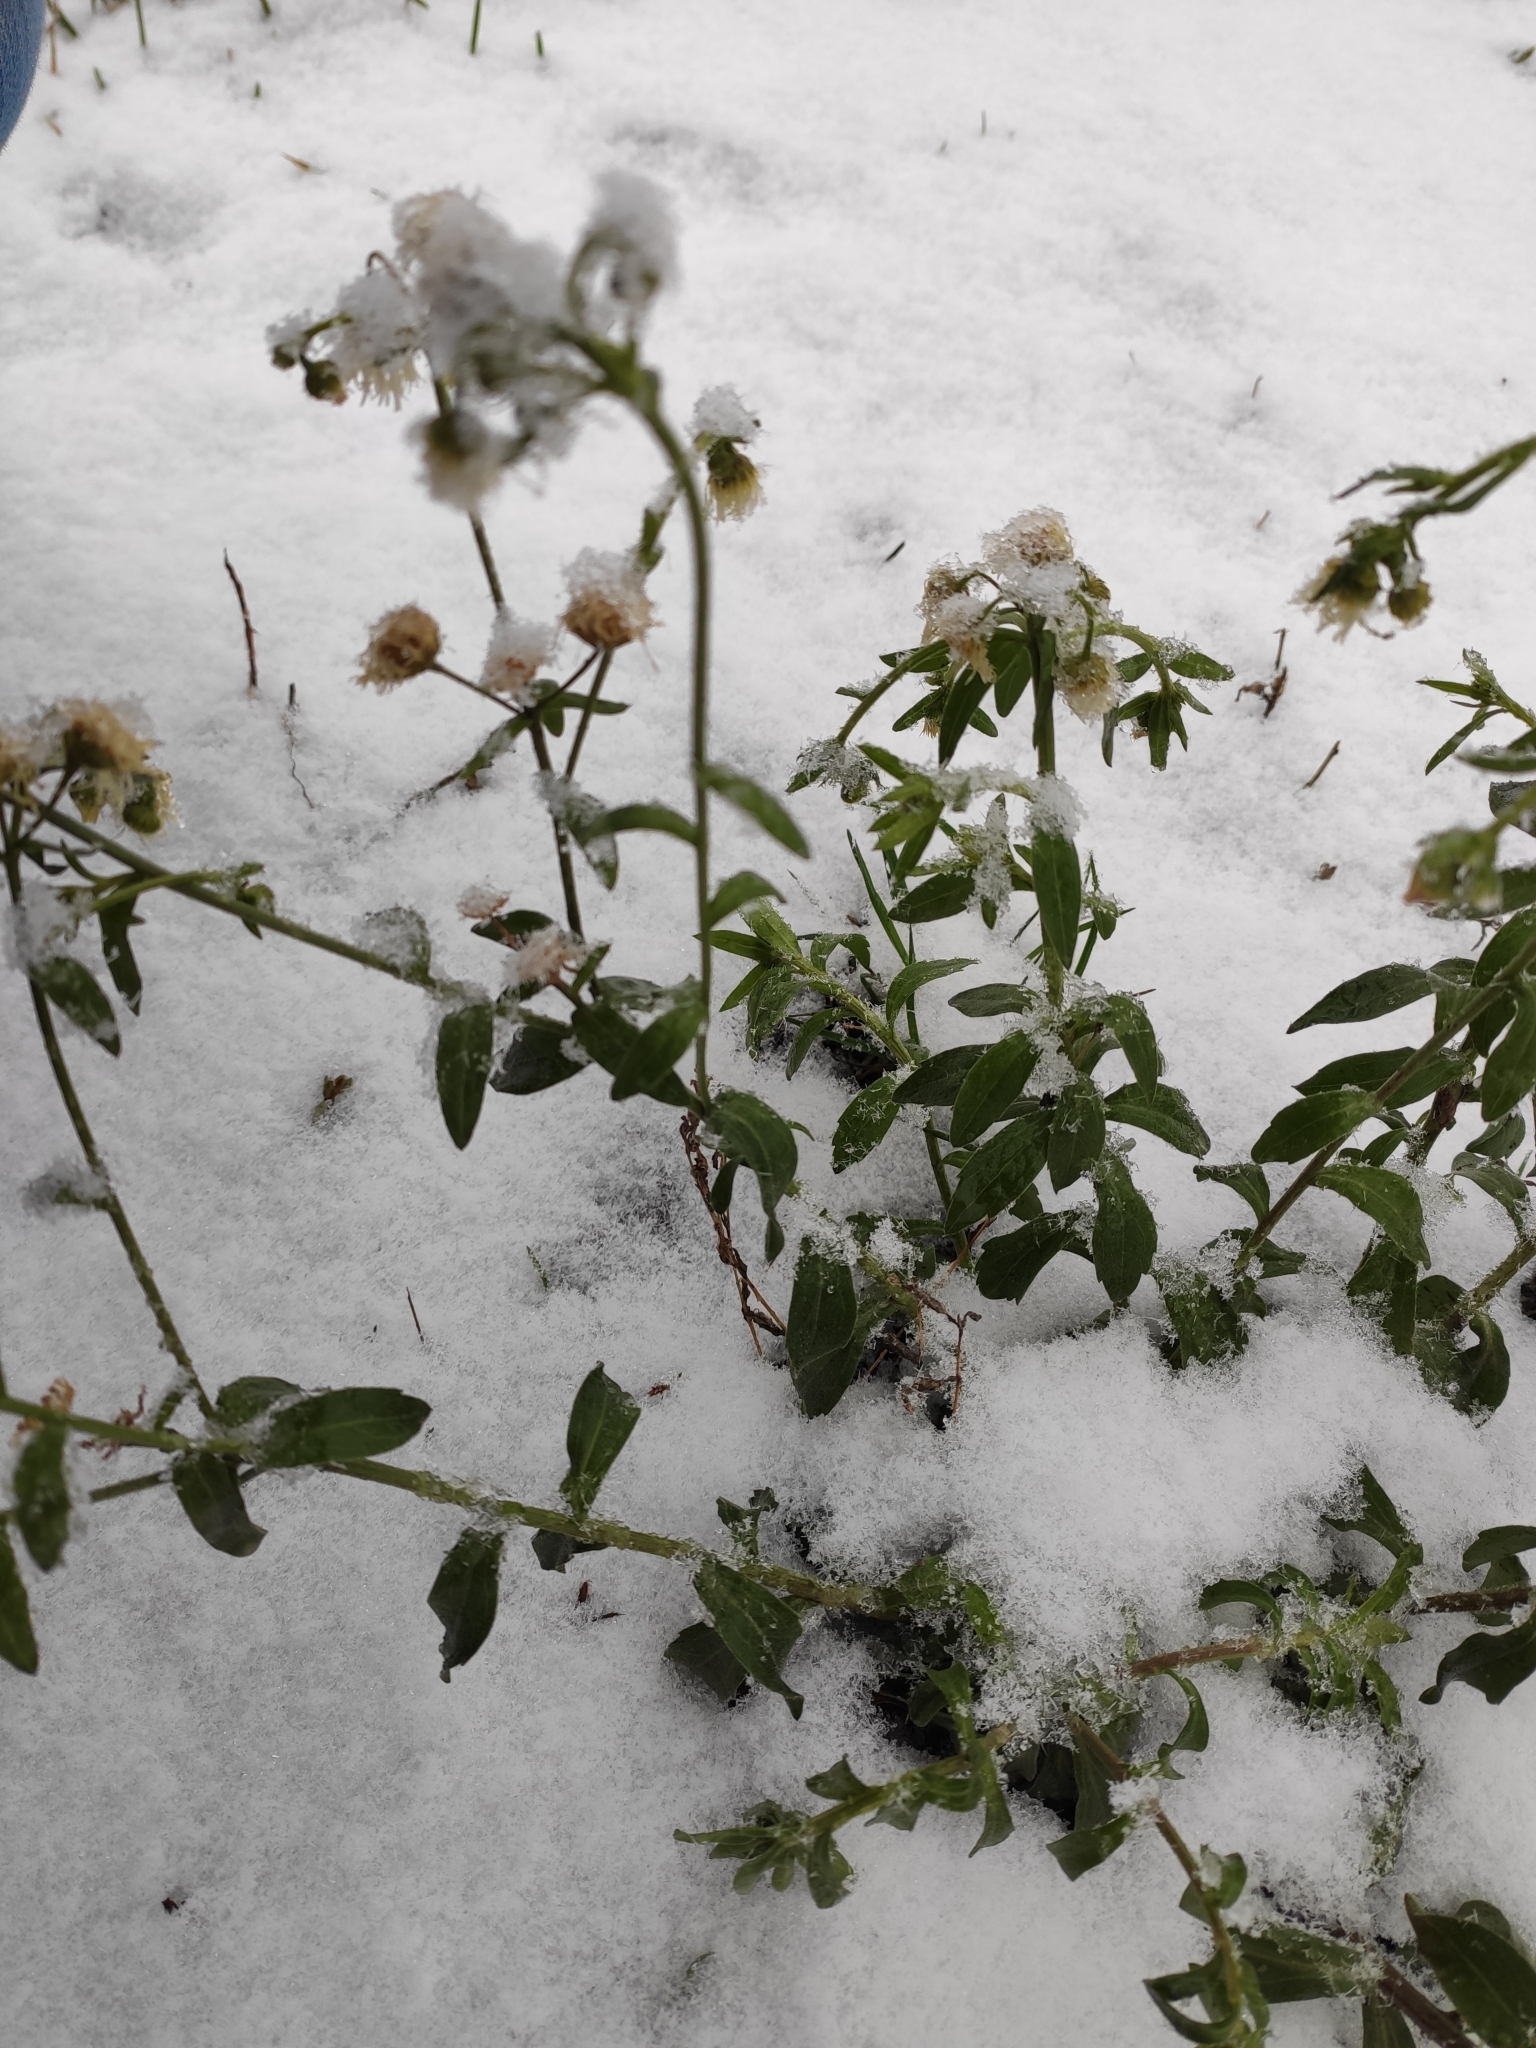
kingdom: Plantae
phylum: Tracheophyta
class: Magnoliopsida
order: Asterales
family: Asteraceae
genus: Erigeron
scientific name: Erigeron annuus
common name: Tall fleabane
